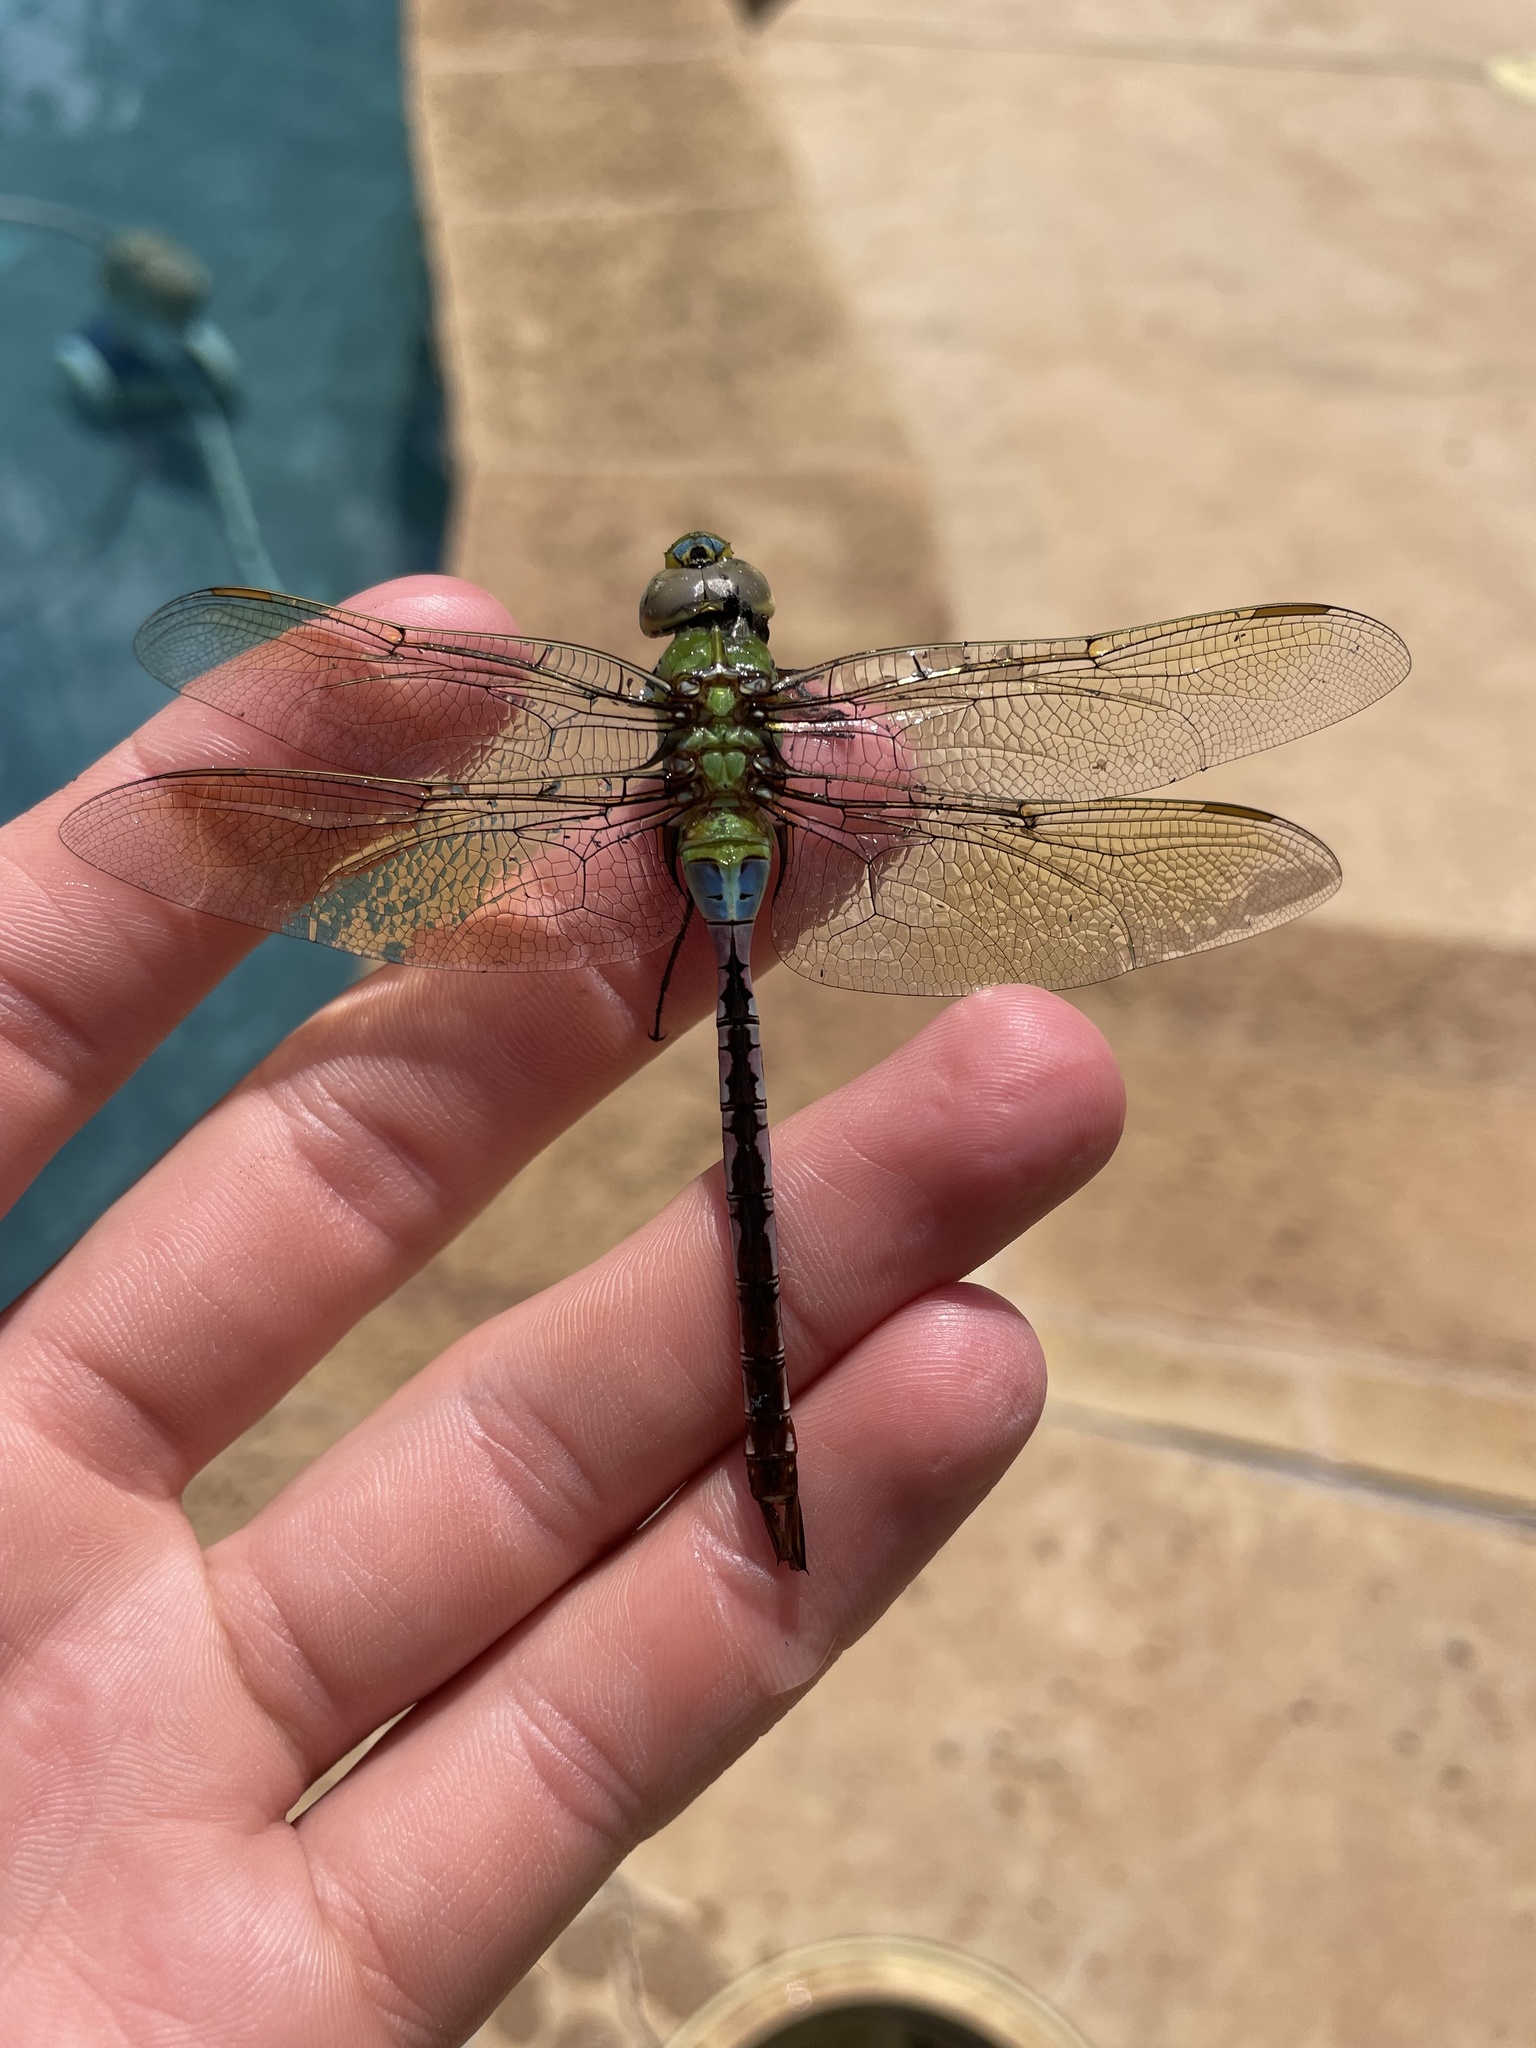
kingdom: Animalia
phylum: Arthropoda
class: Insecta
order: Odonata
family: Aeshnidae
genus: Anax
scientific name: Anax junius
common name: Common green darner
